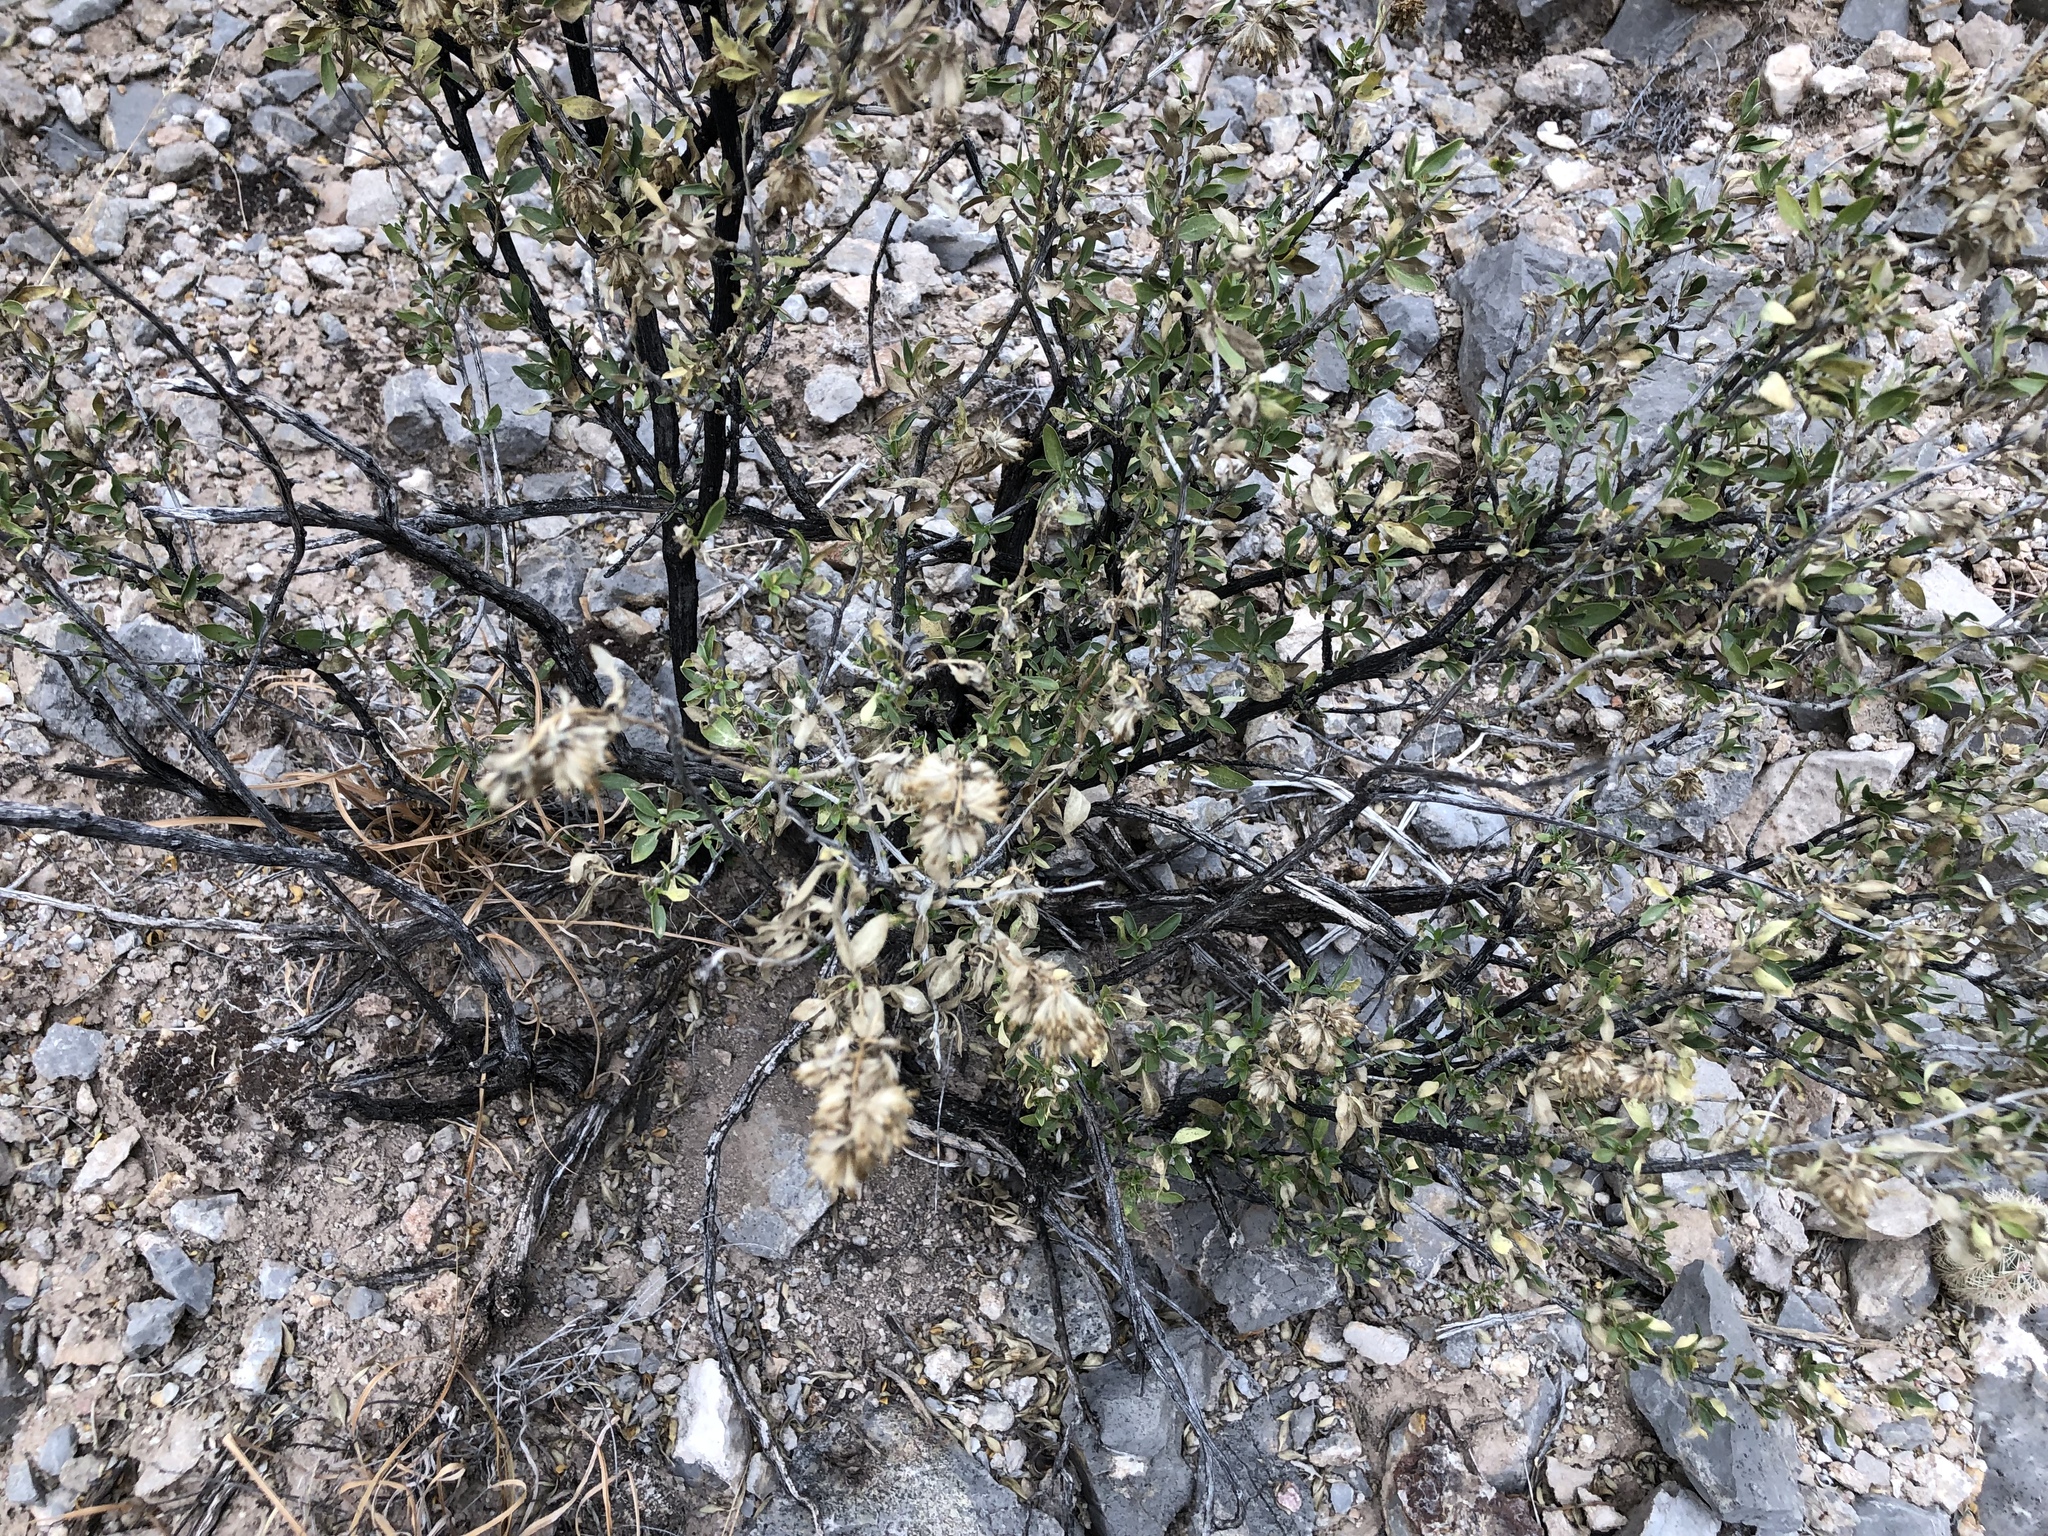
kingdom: Plantae
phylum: Tracheophyta
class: Magnoliopsida
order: Asterales
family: Asteraceae
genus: Flourensia
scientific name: Flourensia cernua
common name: Varnishbush
